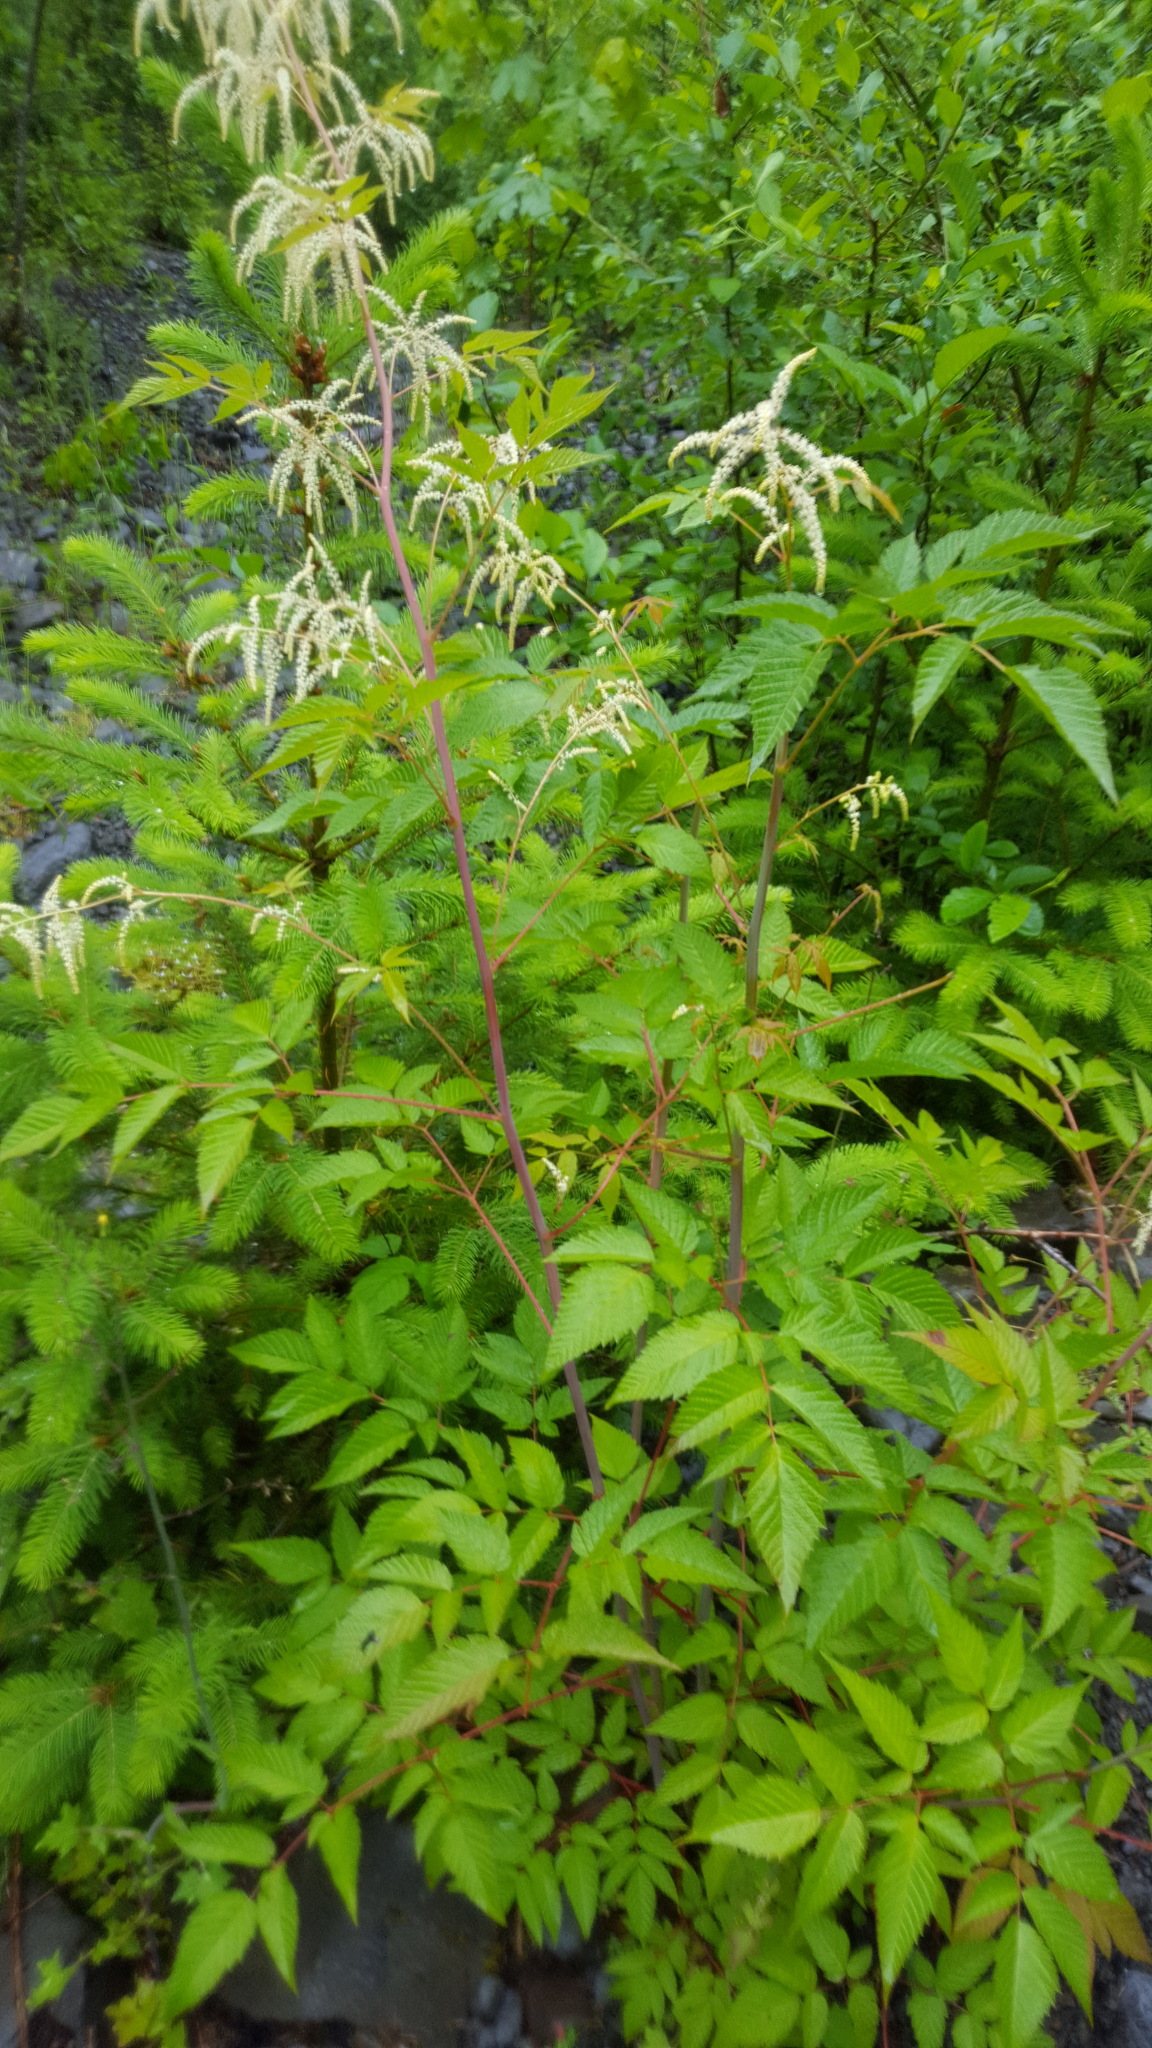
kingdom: Plantae
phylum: Tracheophyta
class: Magnoliopsida
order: Rosales
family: Rosaceae
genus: Aruncus
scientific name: Aruncus dioicus
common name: Buck's-beard
